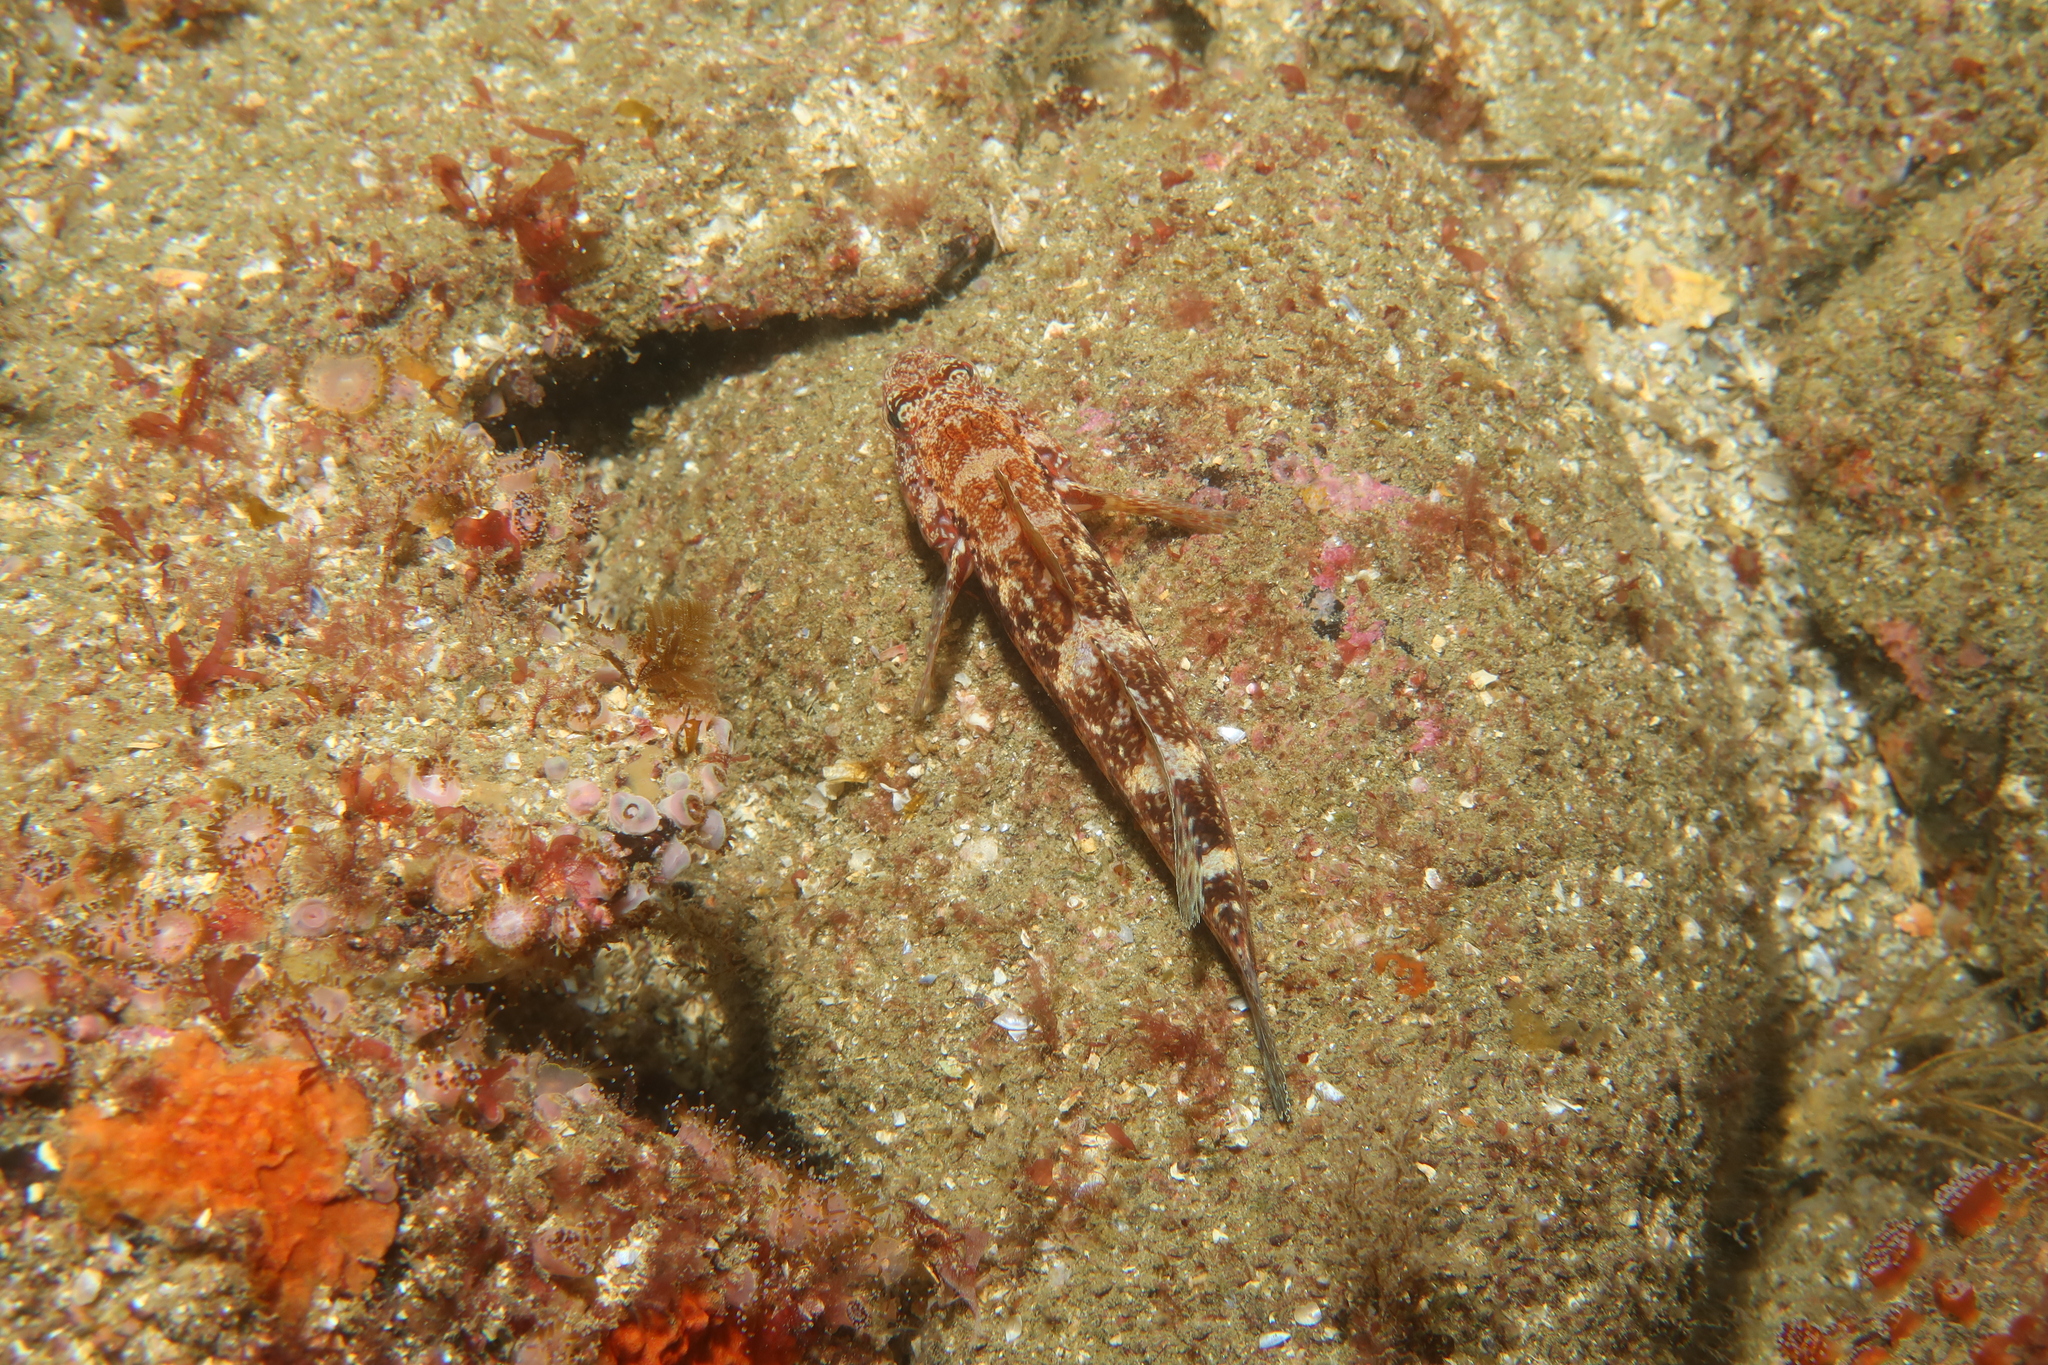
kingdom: Animalia
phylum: Chordata
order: Perciformes
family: Gobiidae
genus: Gobius
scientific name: Gobius cruentatus
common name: Red-mouthed goby
